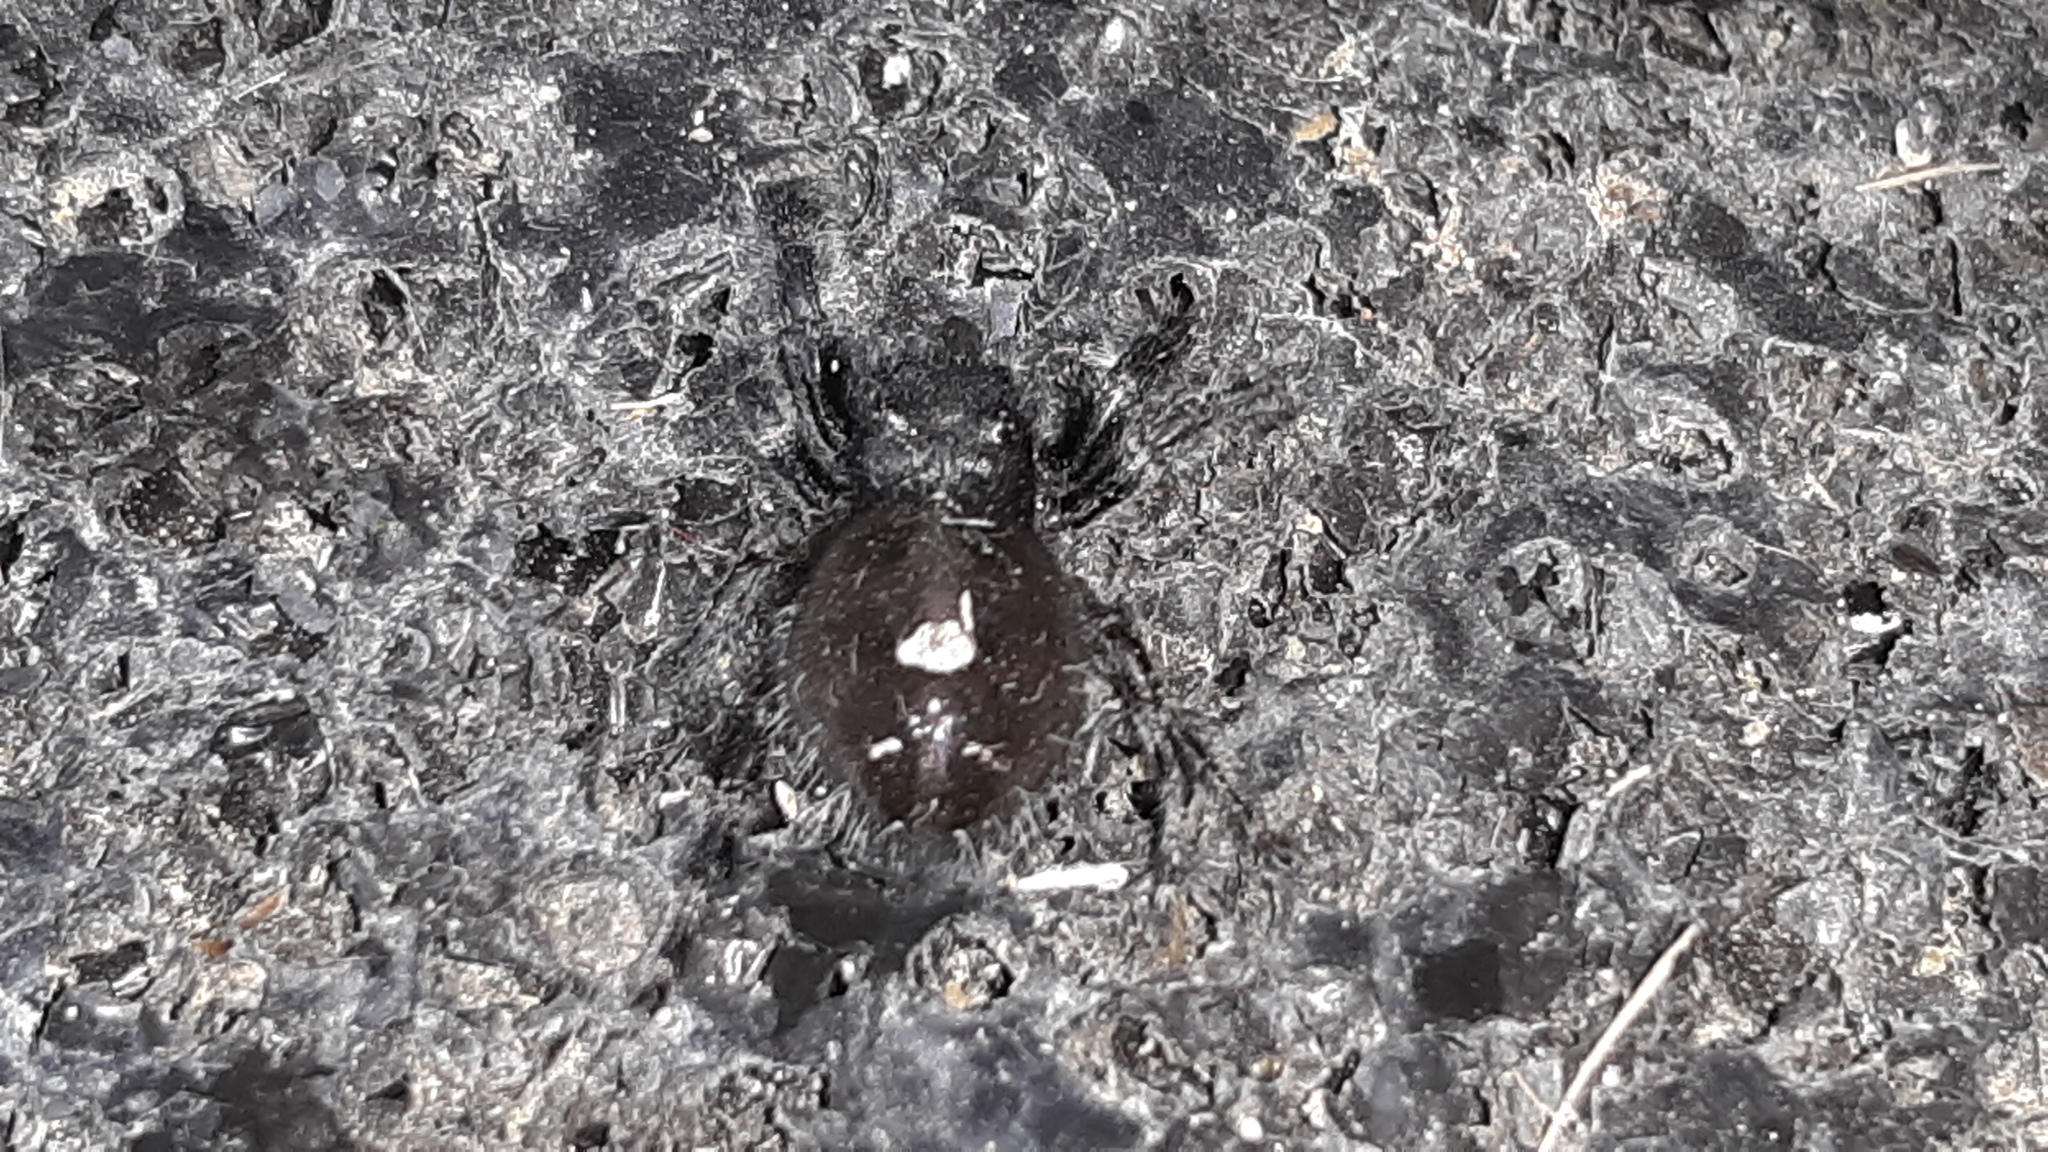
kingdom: Animalia
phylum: Arthropoda
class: Arachnida
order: Araneae
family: Salticidae
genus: Phidippus
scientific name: Phidippus audax
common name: Bold jumper
